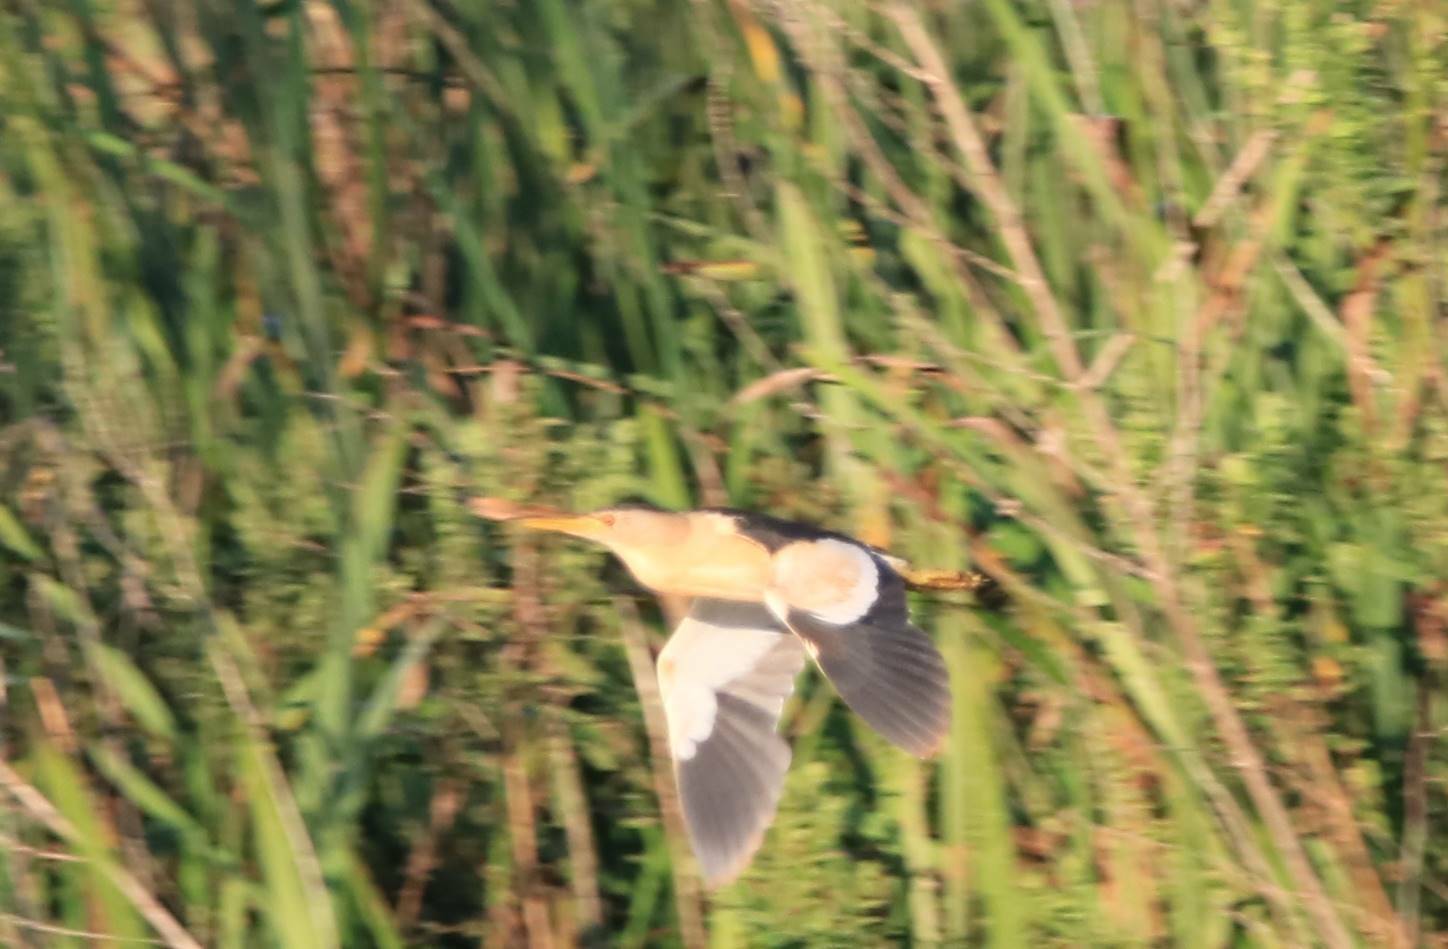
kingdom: Animalia
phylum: Chordata
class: Aves
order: Pelecaniformes
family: Ardeidae
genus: Ixobrychus
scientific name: Ixobrychus minutus
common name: Little bittern
